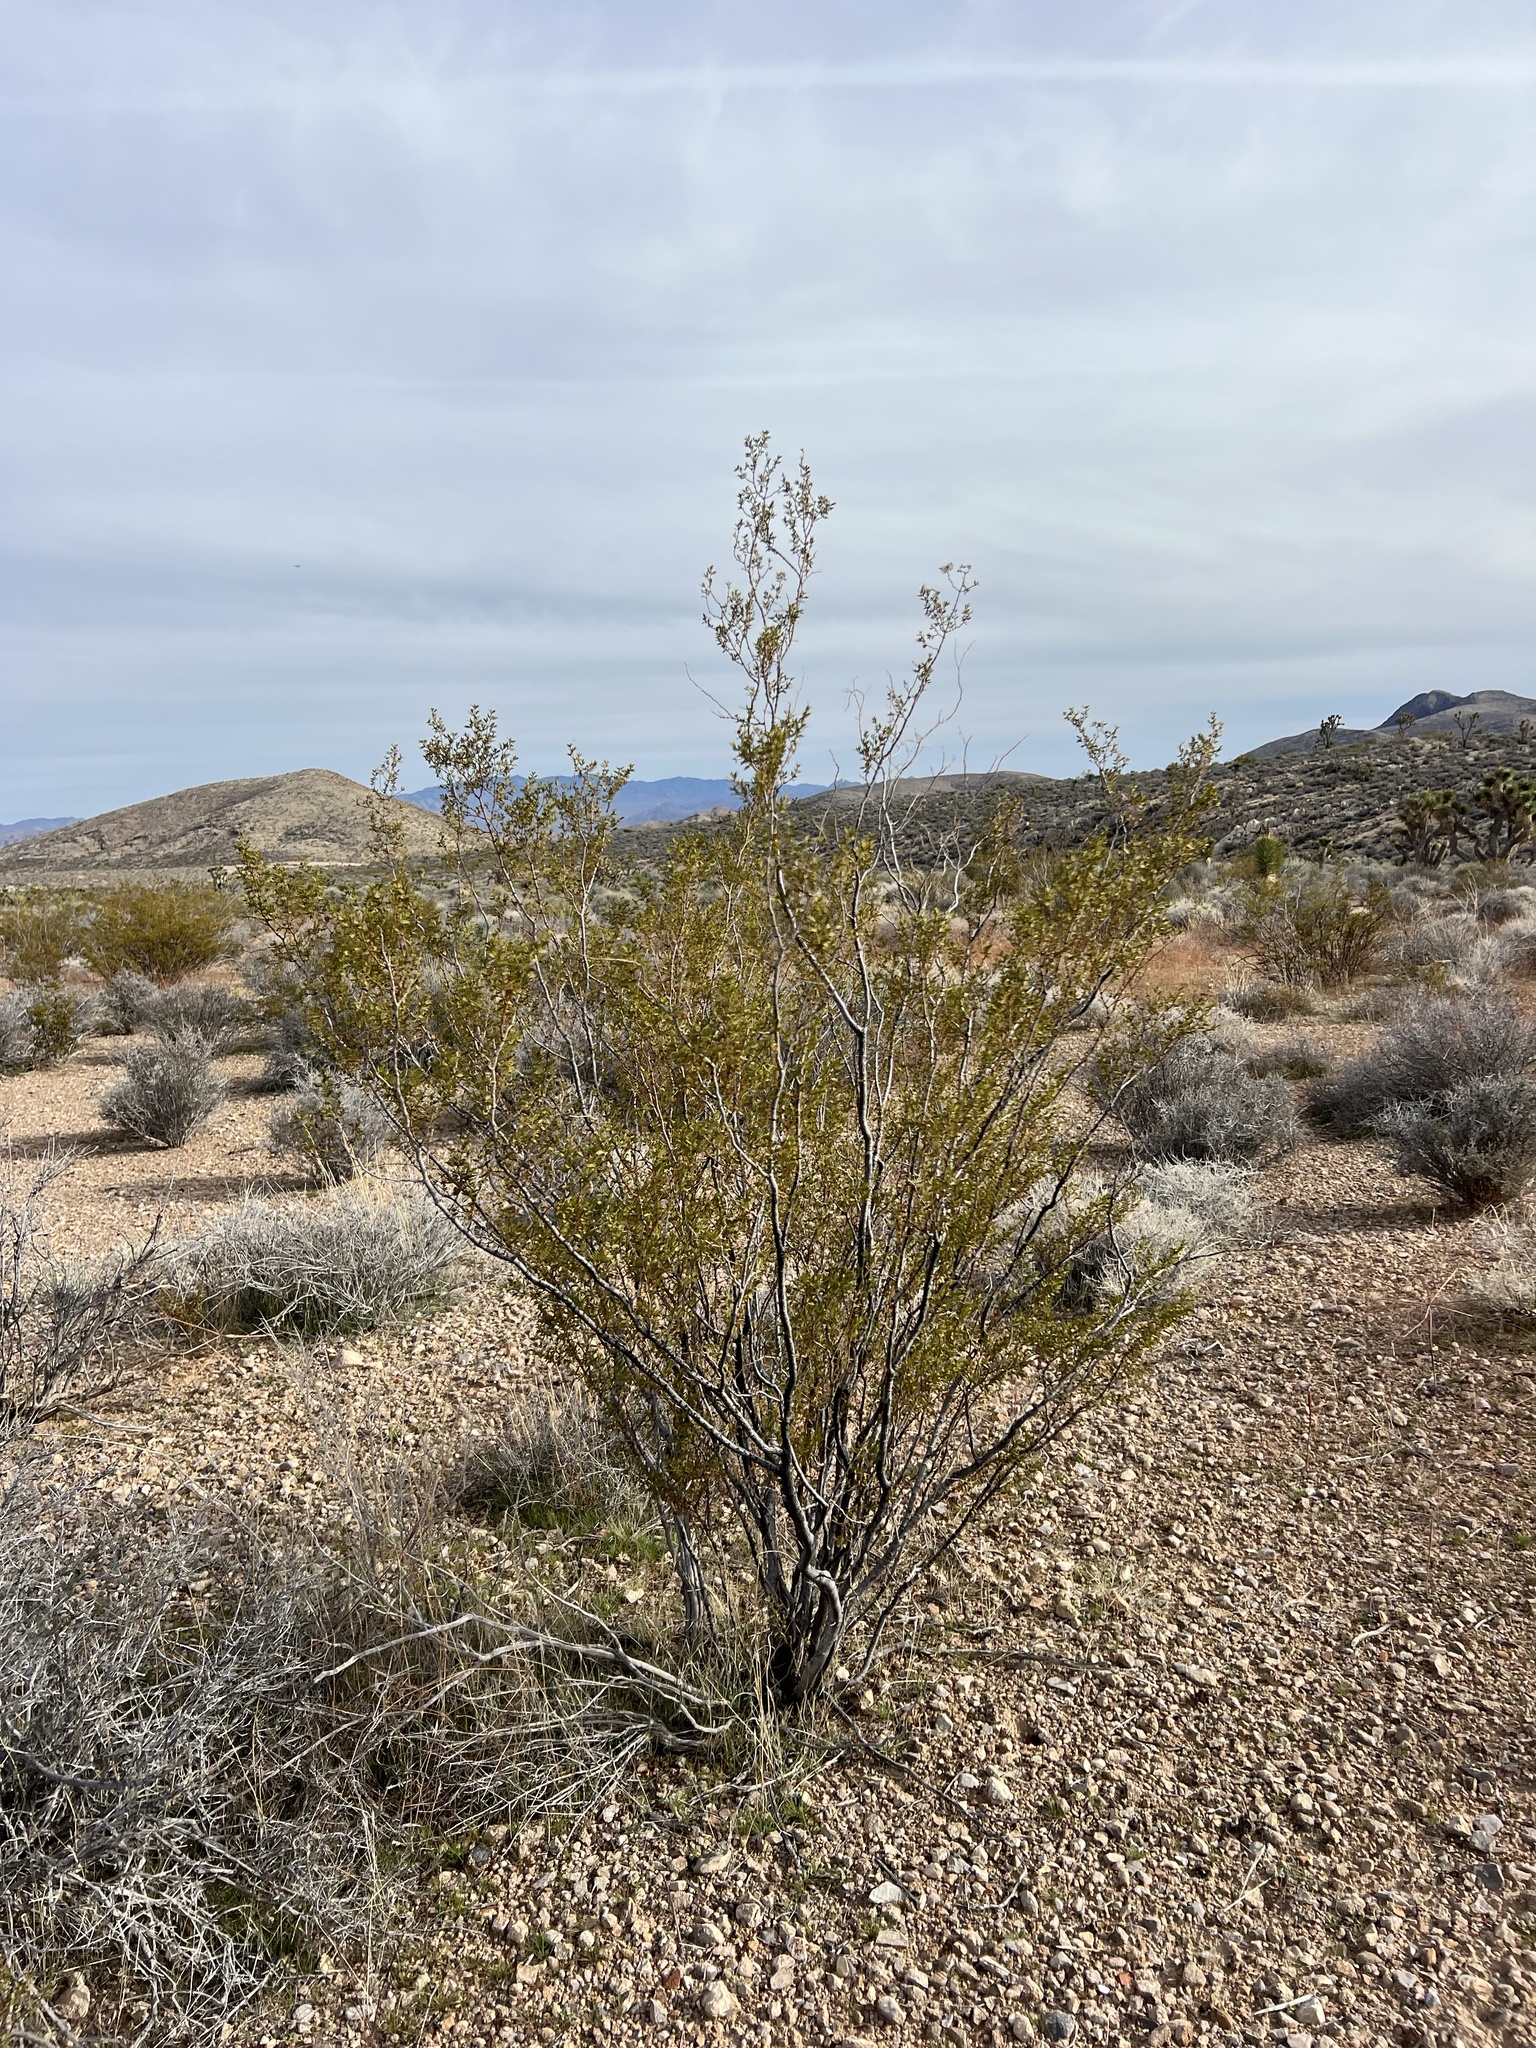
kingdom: Plantae
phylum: Tracheophyta
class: Magnoliopsida
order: Zygophyllales
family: Zygophyllaceae
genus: Larrea
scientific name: Larrea tridentata
